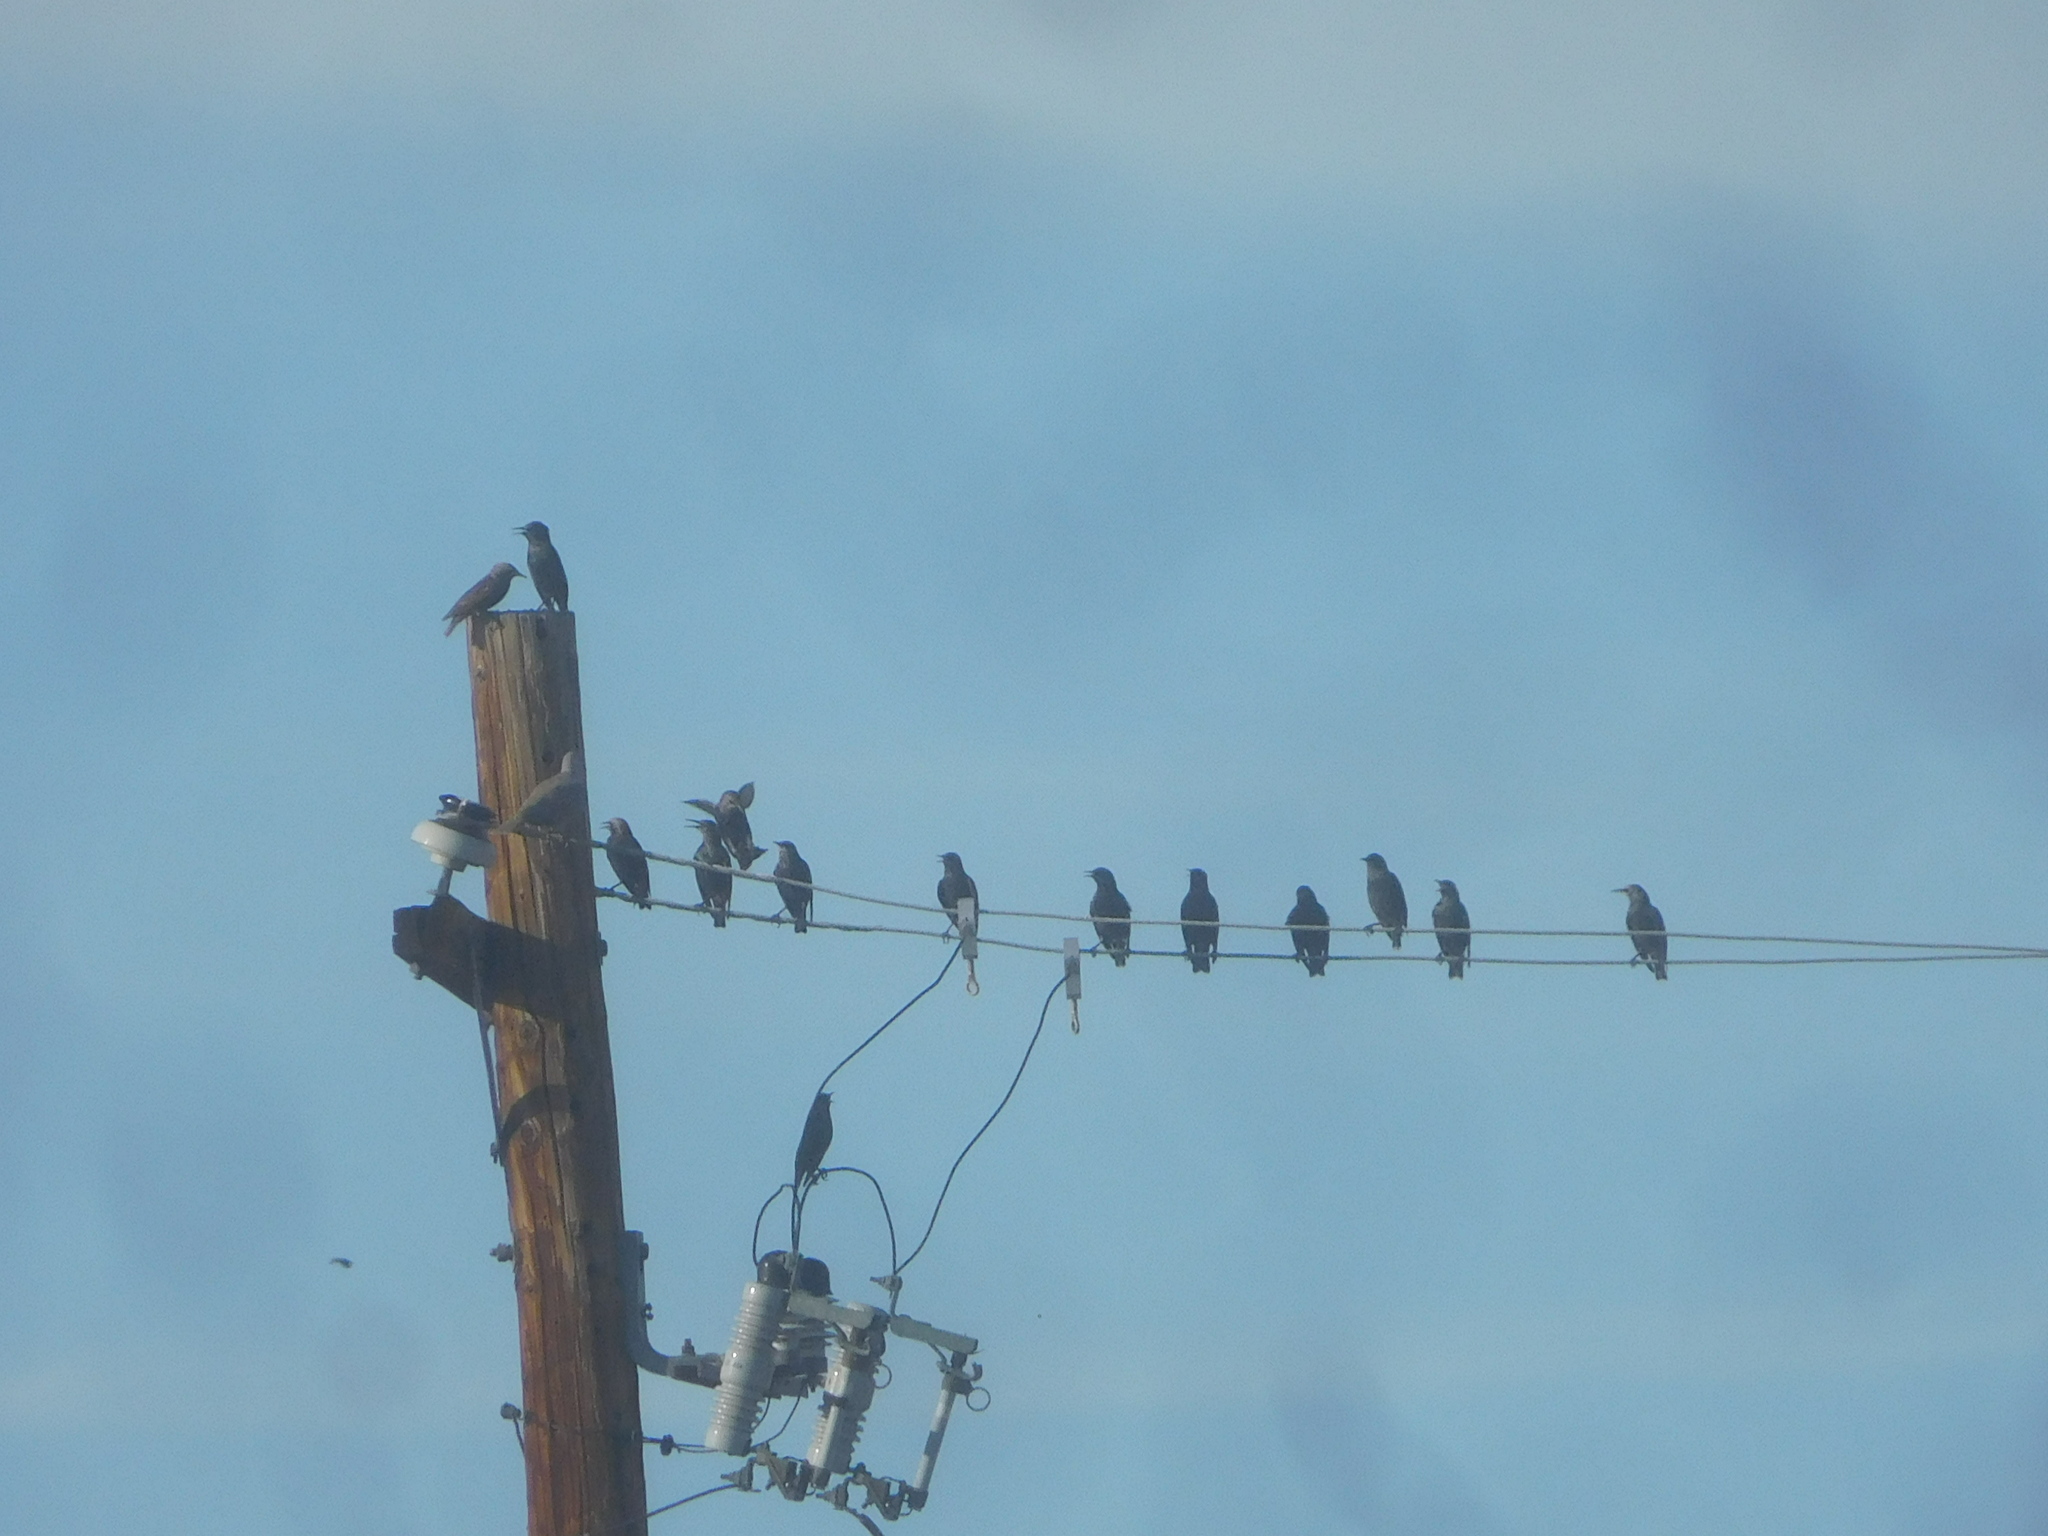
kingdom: Animalia
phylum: Chordata
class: Aves
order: Passeriformes
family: Sturnidae
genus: Sturnus
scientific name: Sturnus vulgaris
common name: Common starling
